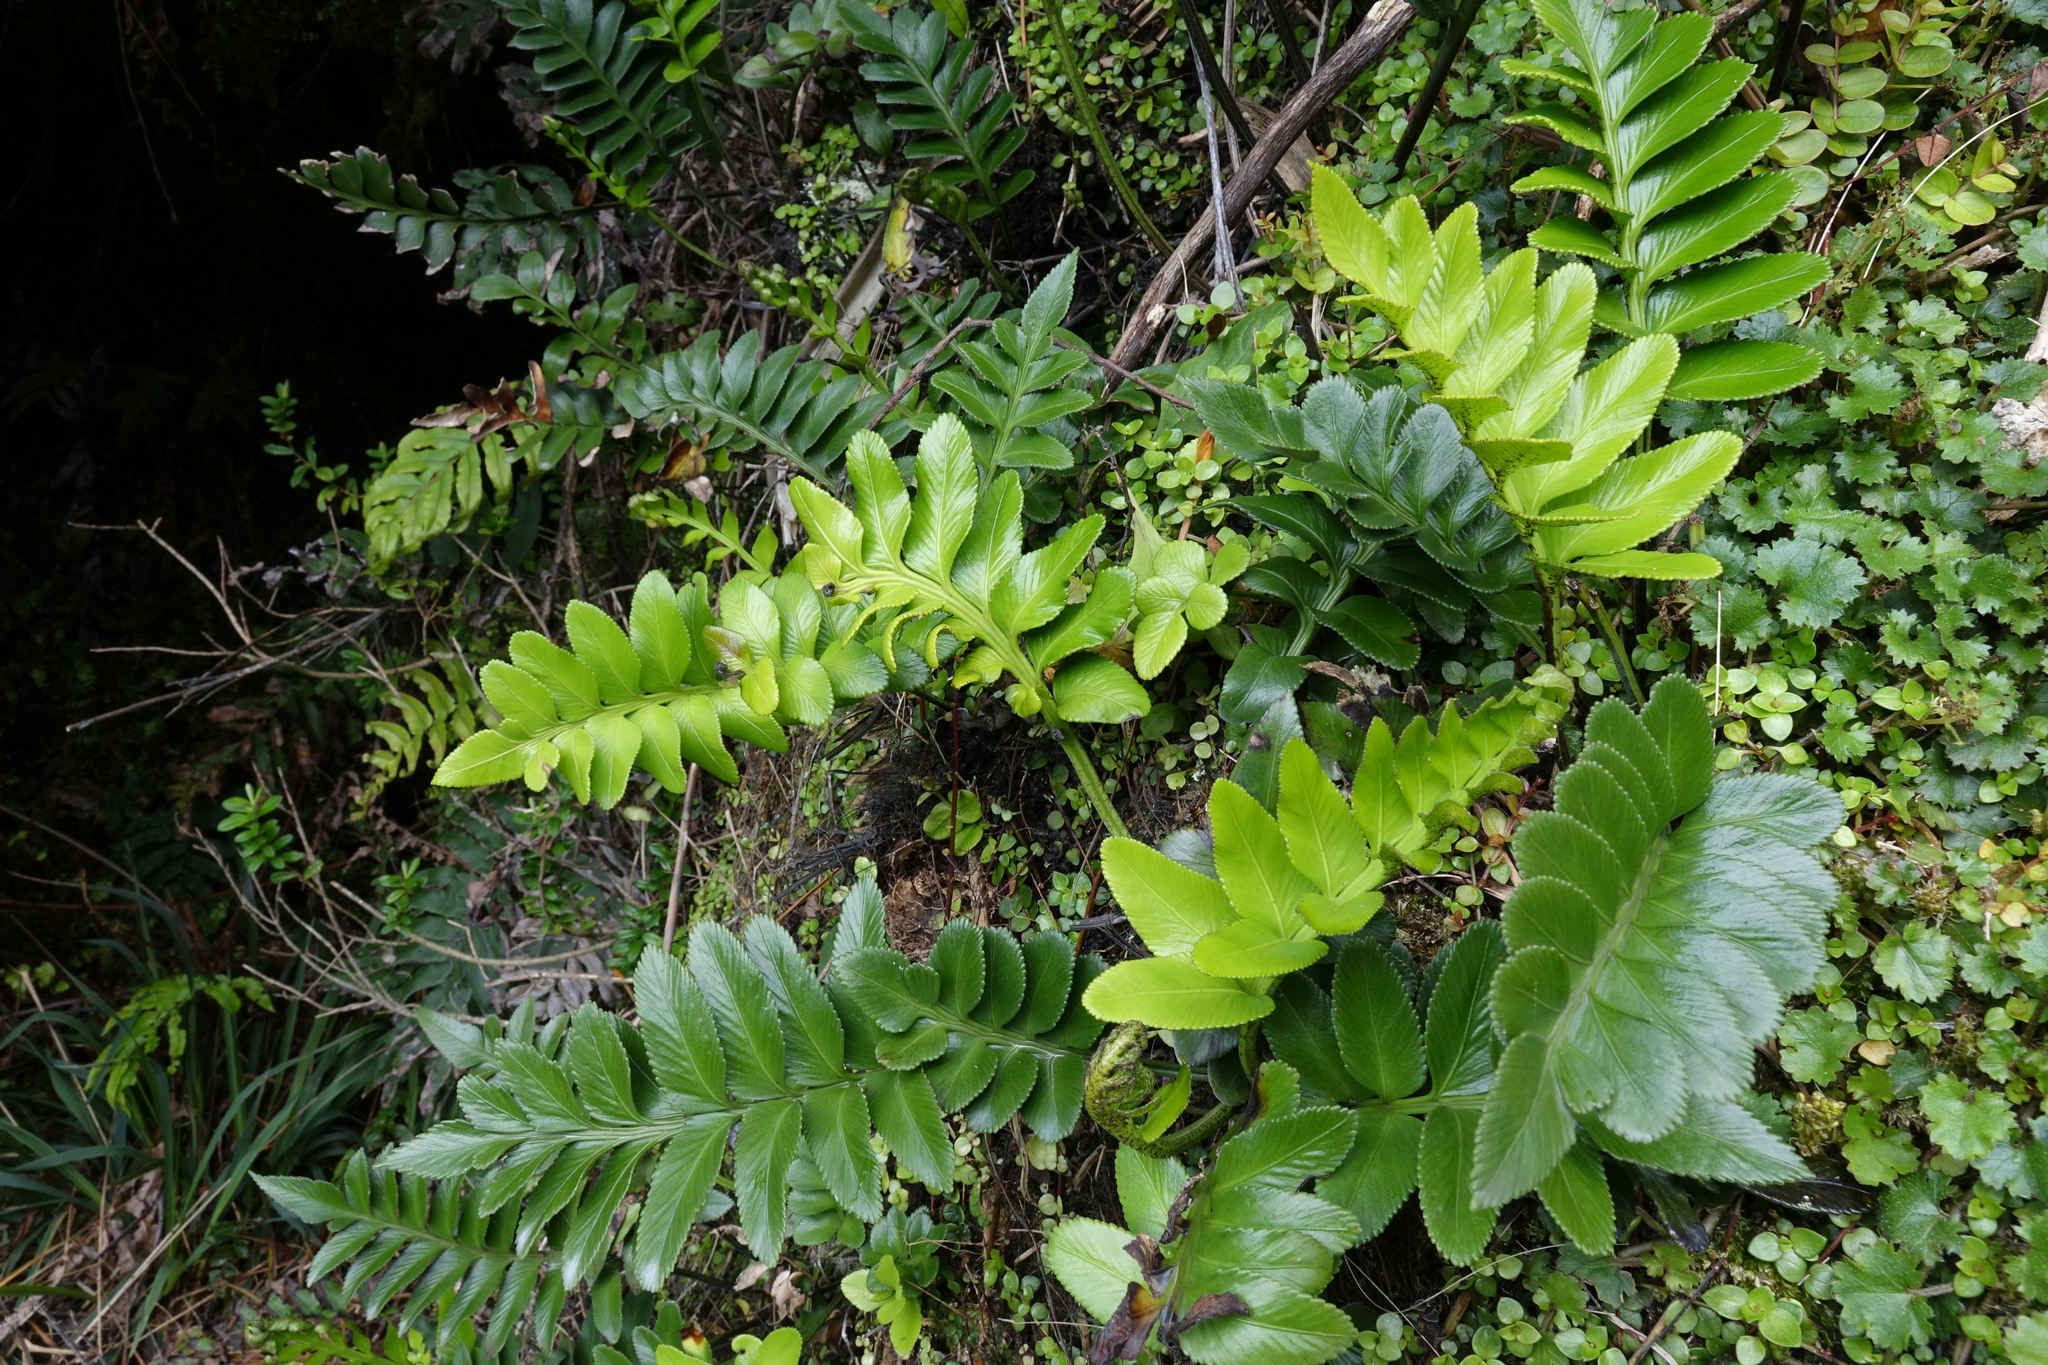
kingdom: Plantae
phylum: Tracheophyta
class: Polypodiopsida
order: Polypodiales
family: Aspleniaceae
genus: Asplenium
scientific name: Asplenium obtusatum
